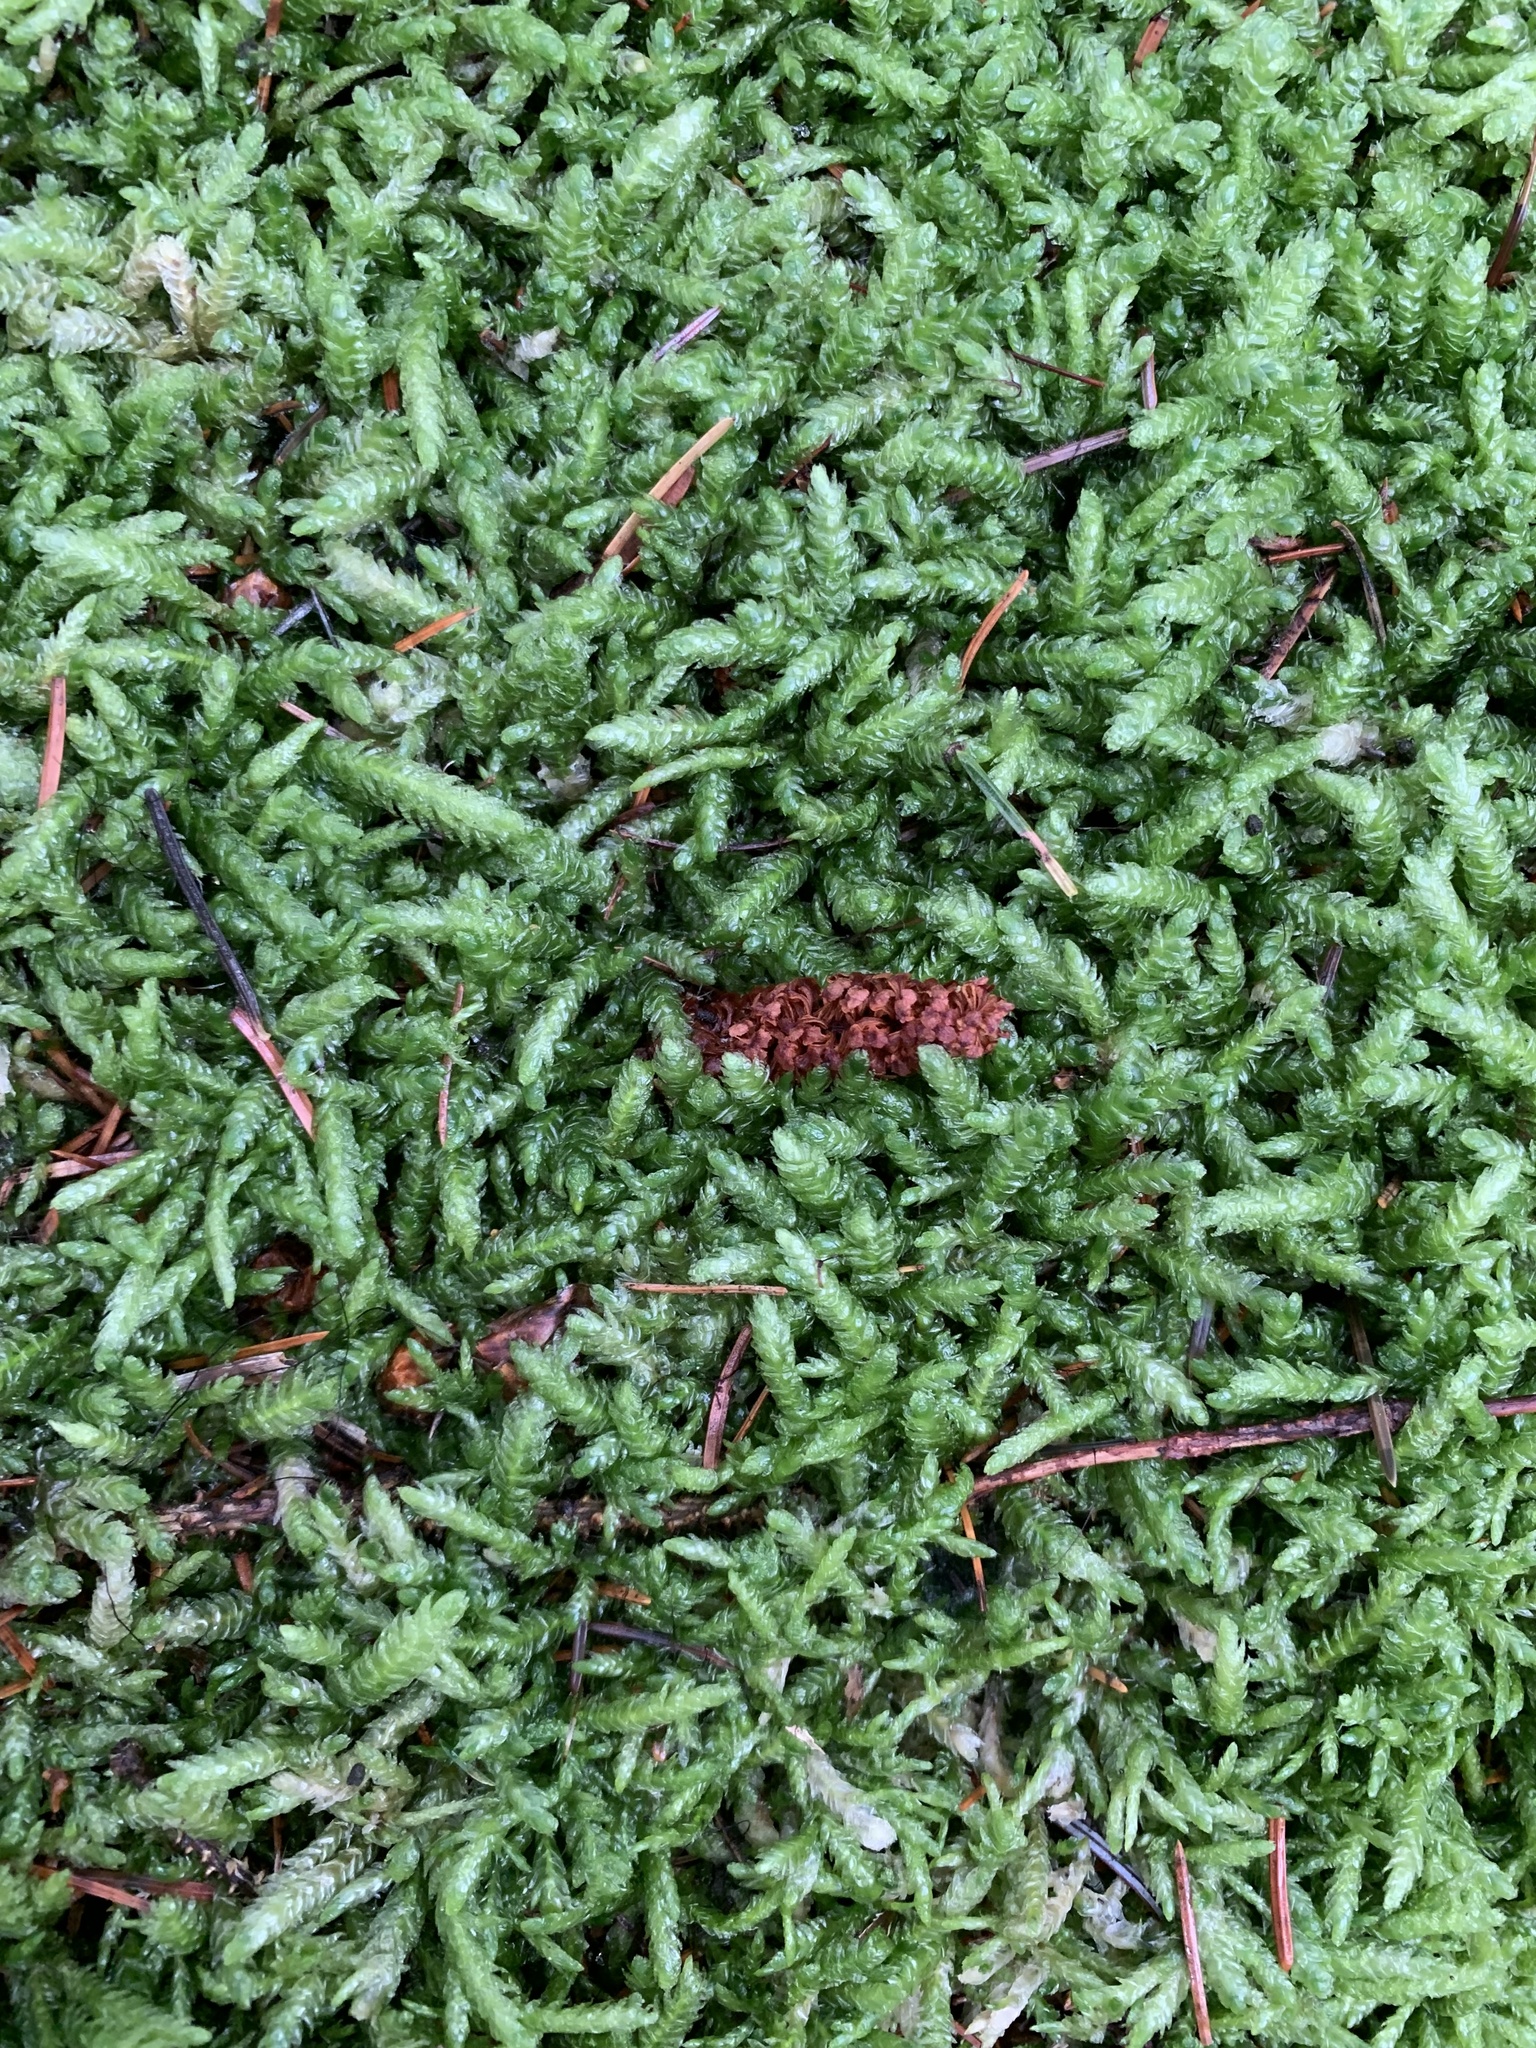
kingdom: Plantae
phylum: Bryophyta
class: Bryopsida
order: Hypnales
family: Plagiotheciaceae
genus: Plagiothecium
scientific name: Plagiothecium undulatum
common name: Waved silk-moss
